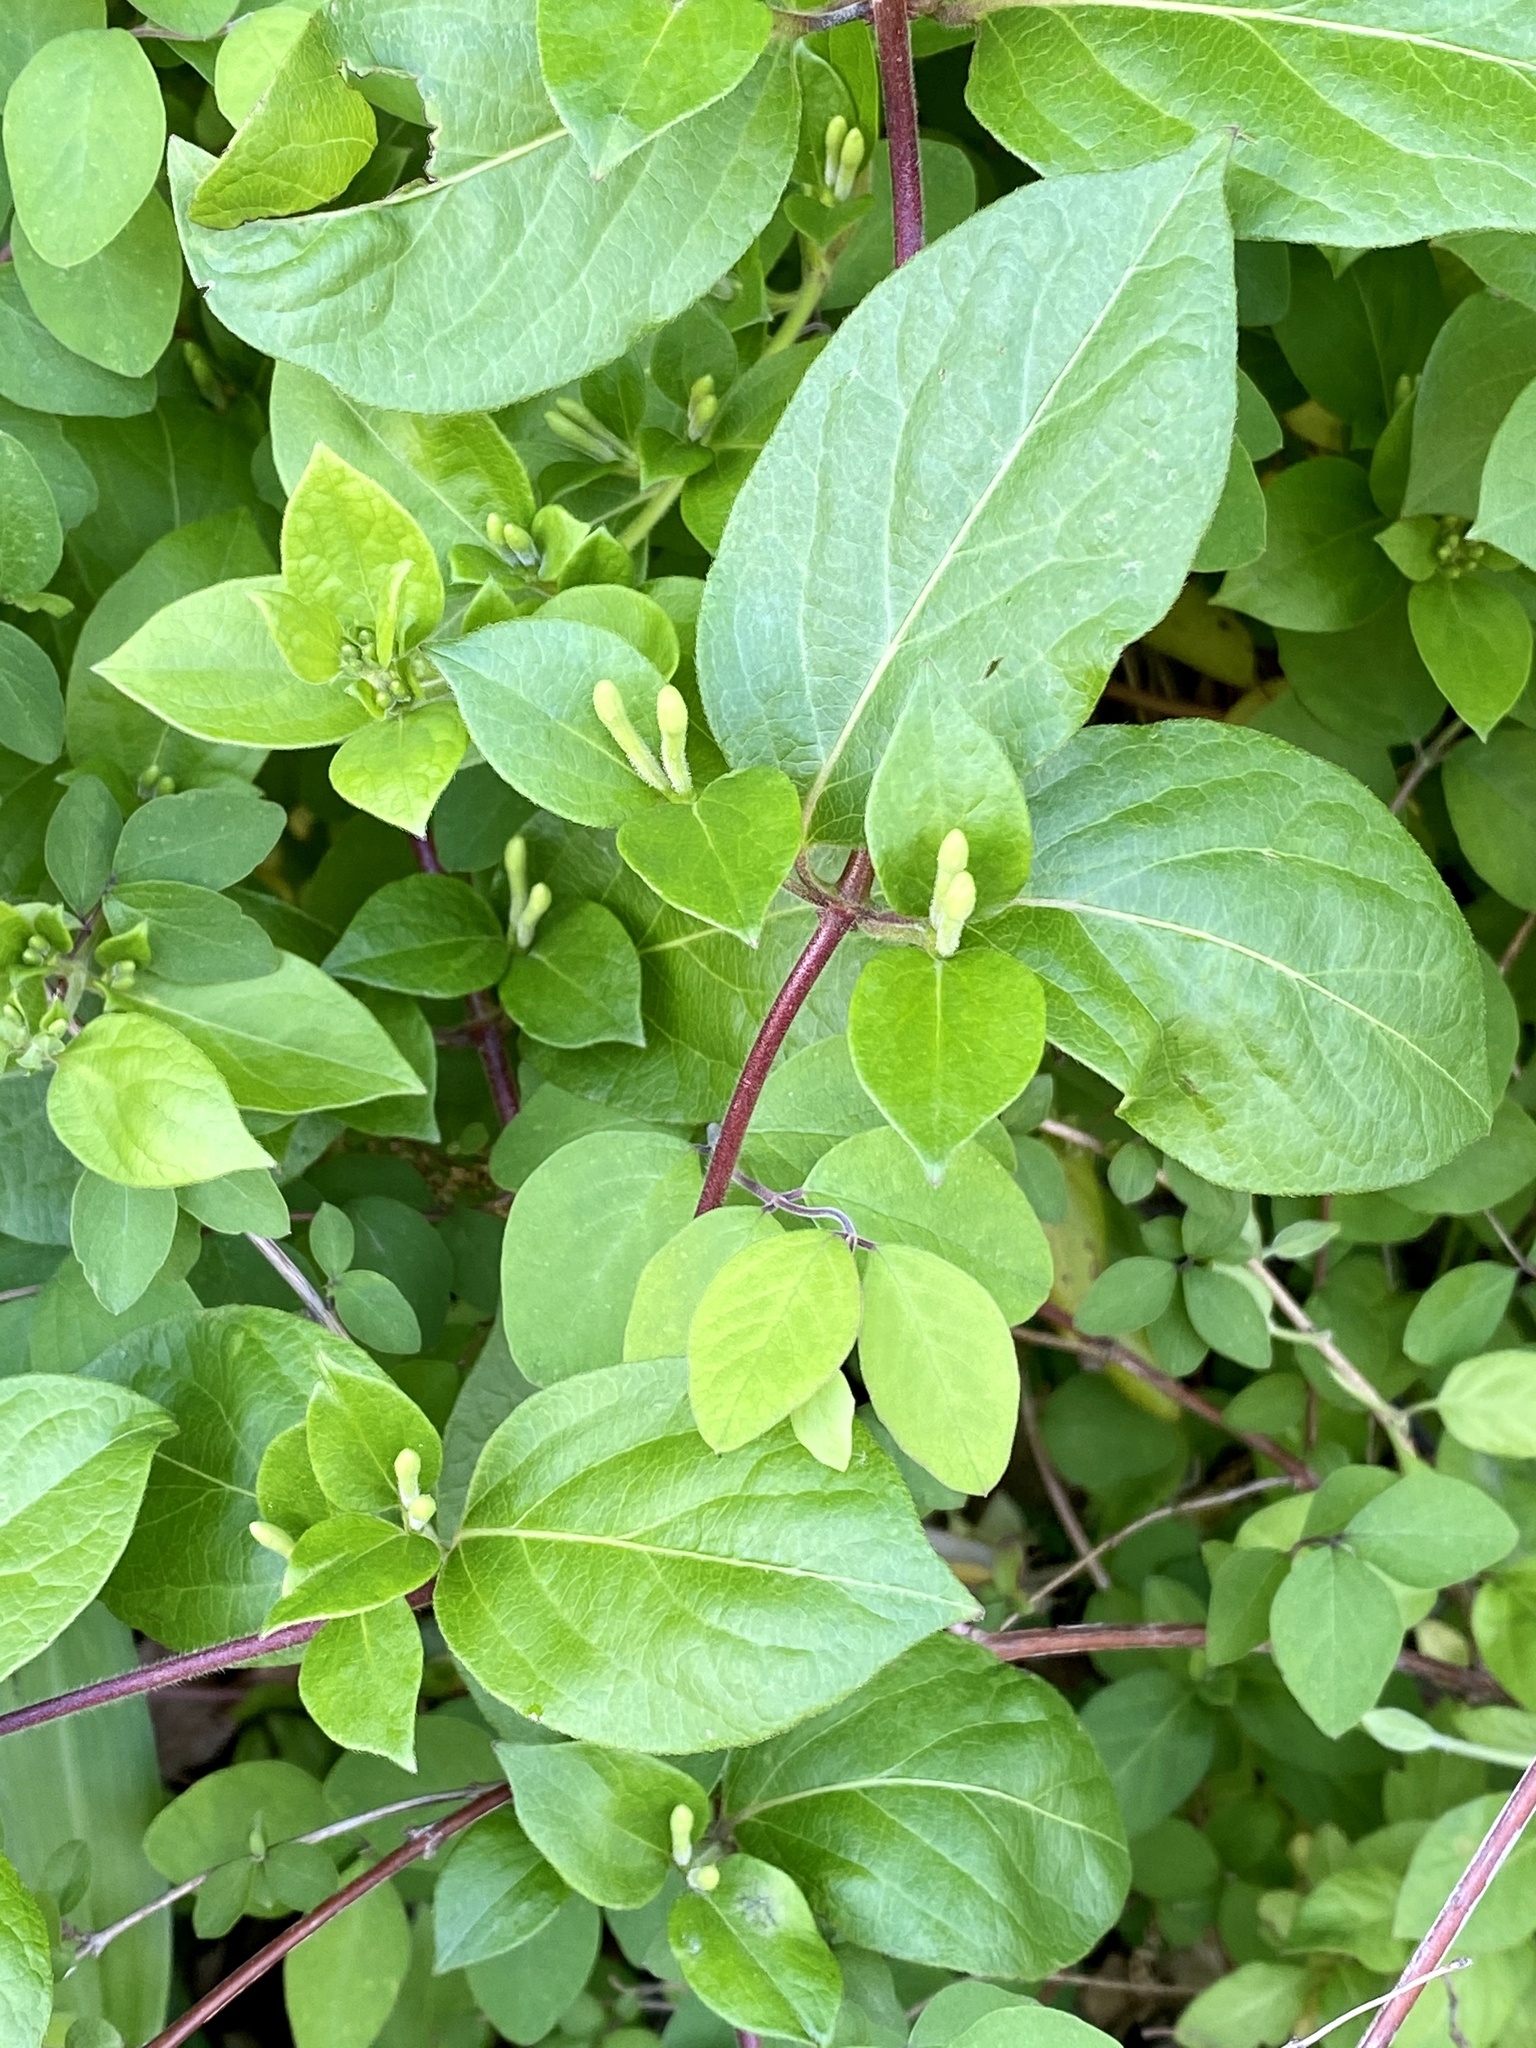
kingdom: Plantae
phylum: Tracheophyta
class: Magnoliopsida
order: Dipsacales
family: Caprifoliaceae
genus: Lonicera
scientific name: Lonicera japonica
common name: Japanese honeysuckle
